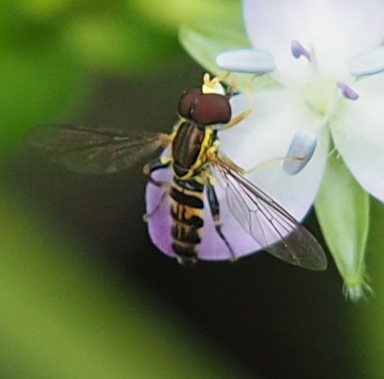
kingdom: Animalia
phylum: Arthropoda
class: Insecta
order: Diptera
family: Syrphidae
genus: Toxomerus
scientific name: Toxomerus geminatus
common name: Eastern calligrapher
